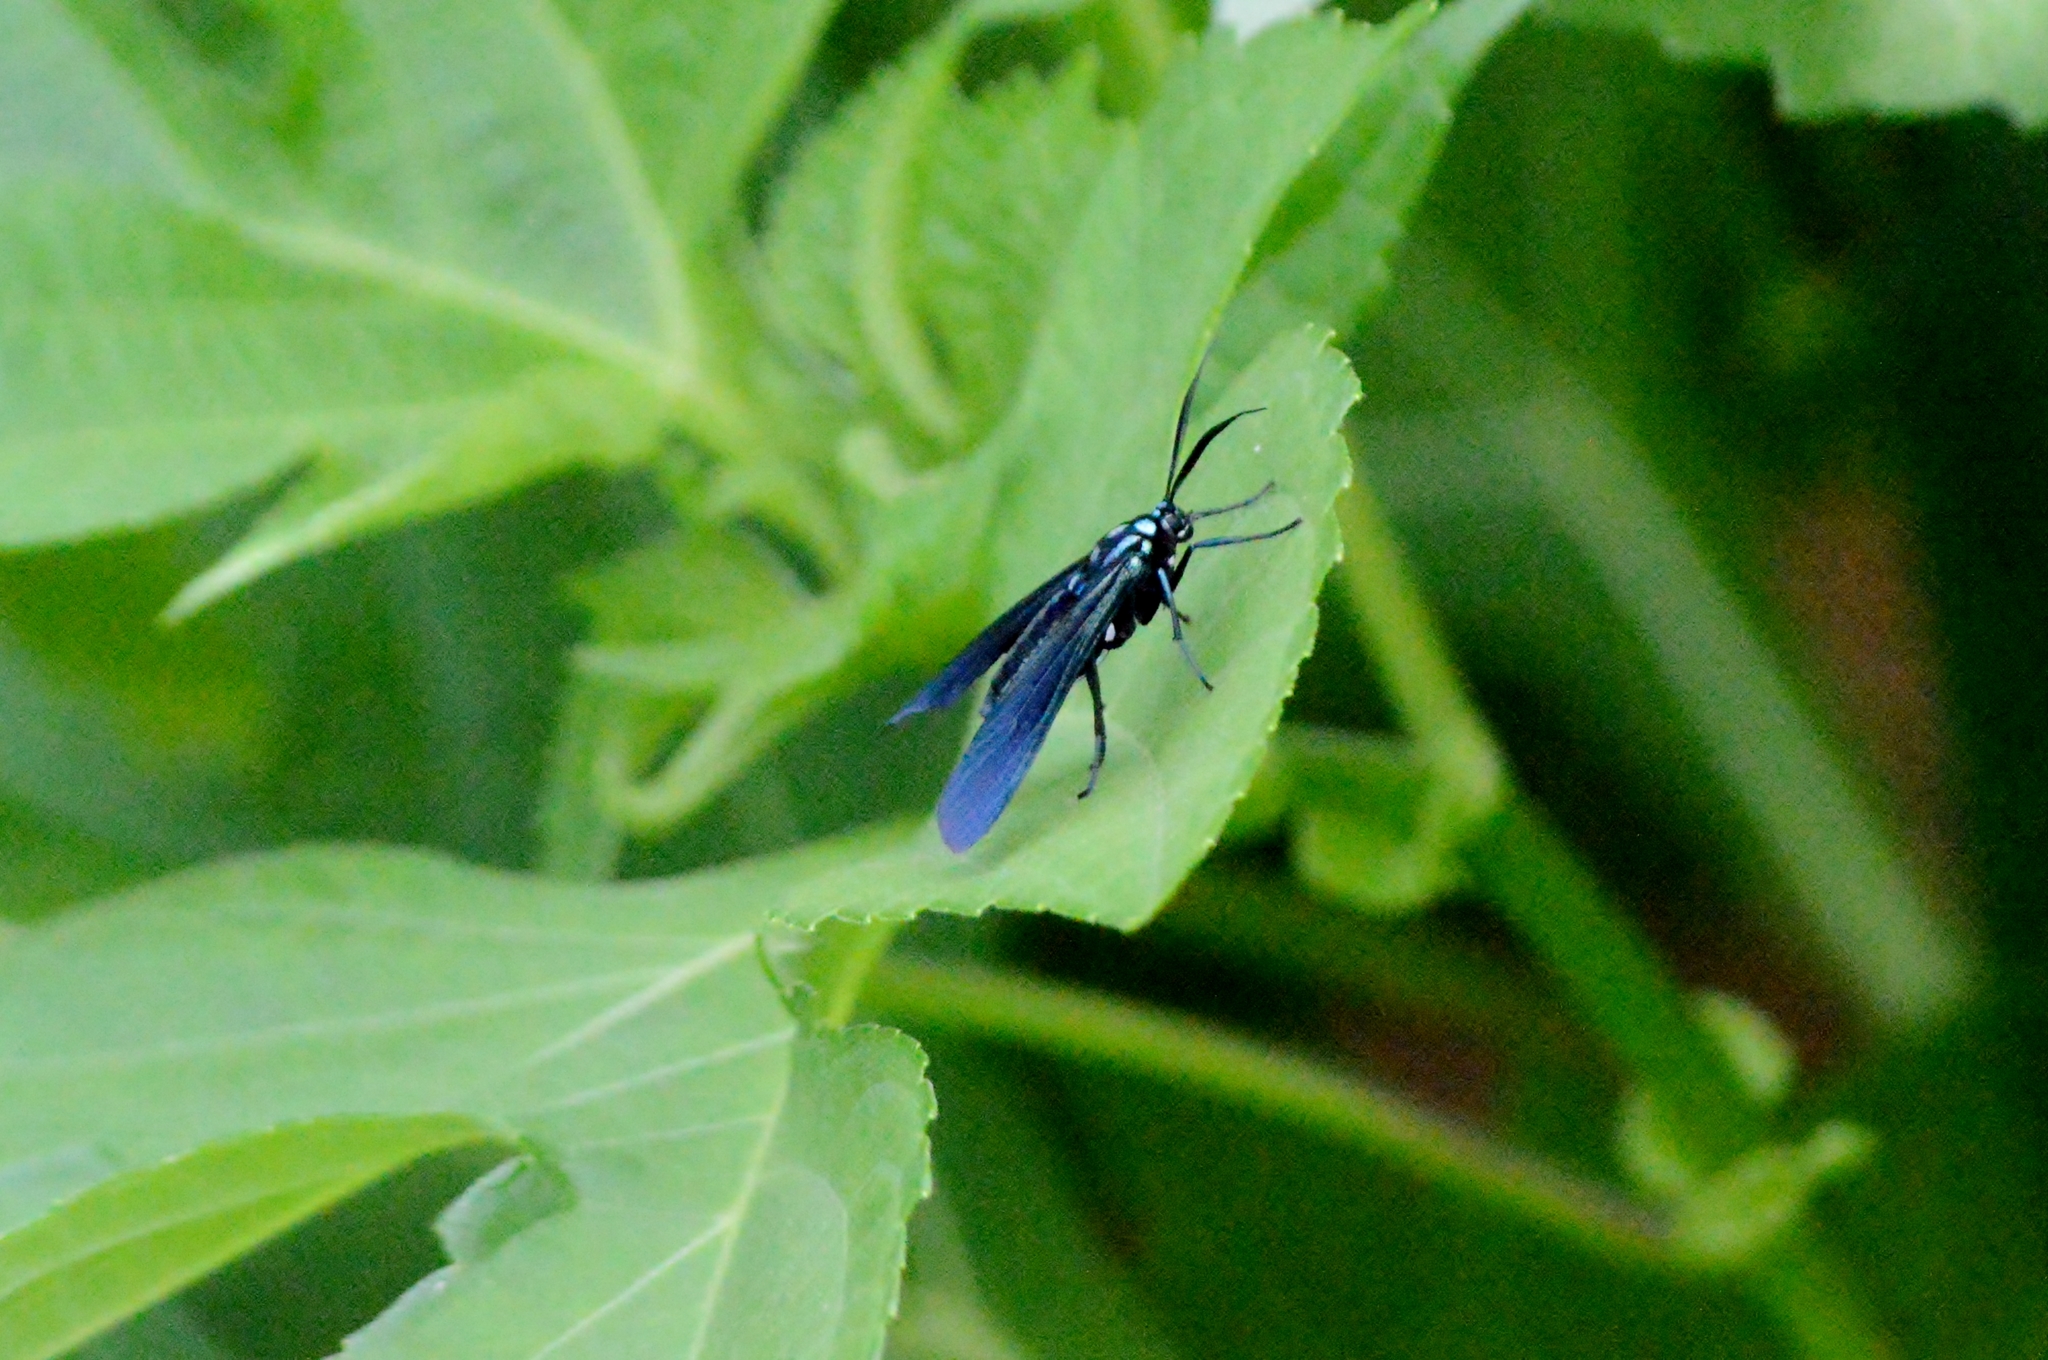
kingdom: Animalia
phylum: Arthropoda
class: Insecta
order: Lepidoptera
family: Erebidae
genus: Antichloris
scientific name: Antichloris eriphia
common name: Banana stowaway
